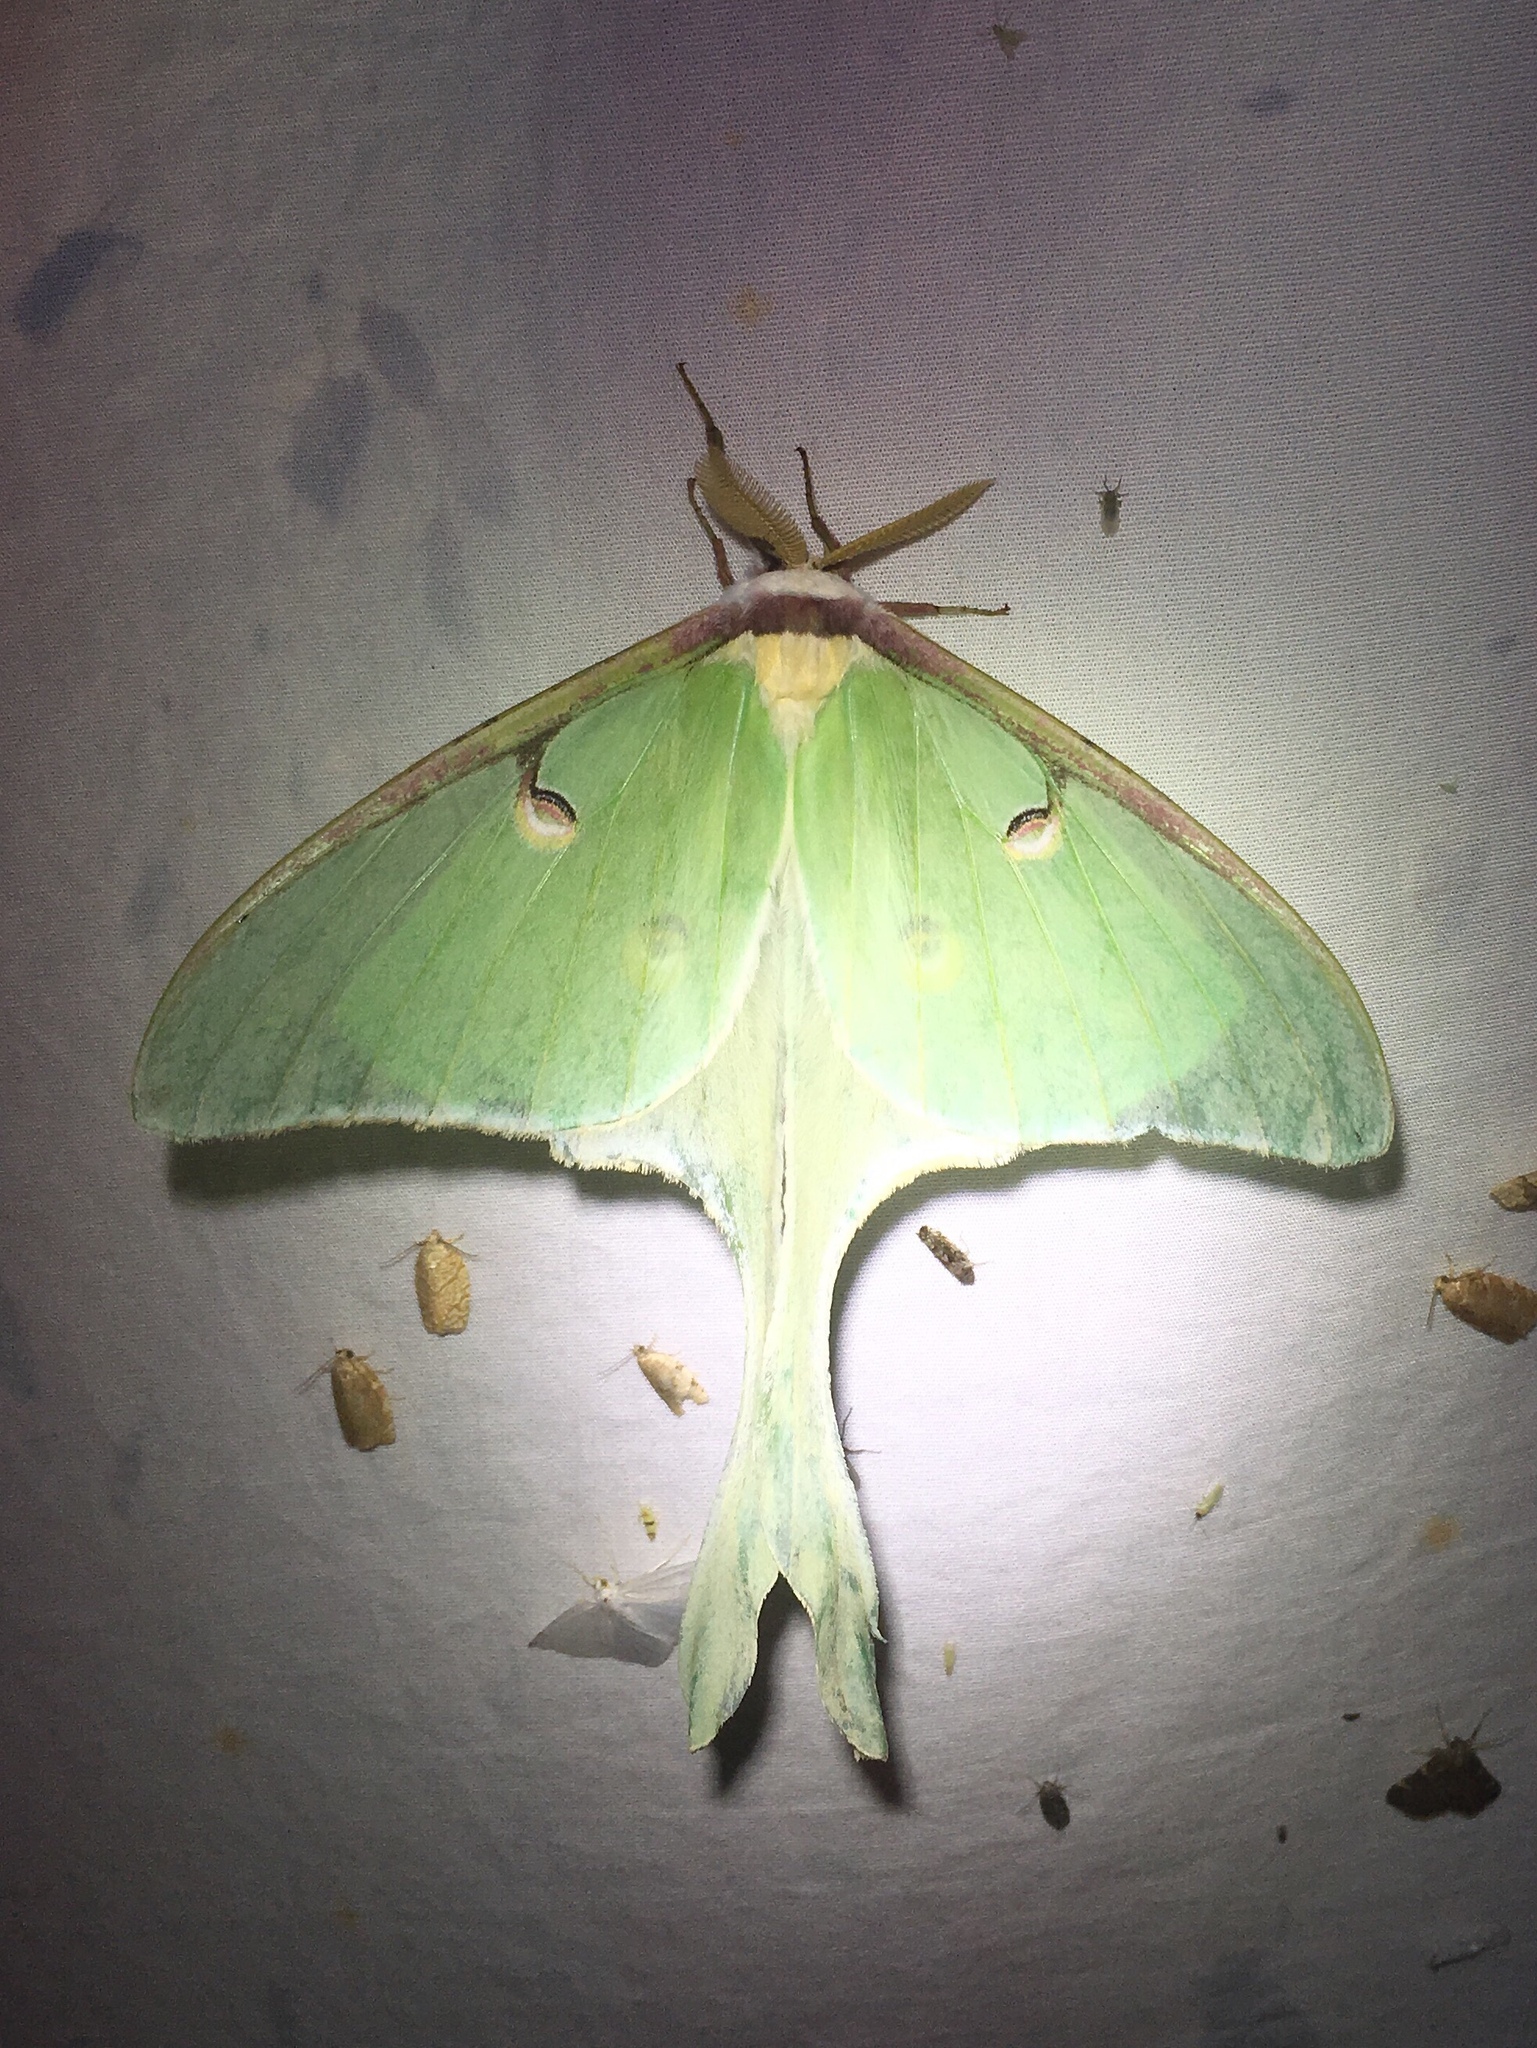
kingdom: Animalia
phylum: Arthropoda
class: Insecta
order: Lepidoptera
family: Saturniidae
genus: Actias
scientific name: Actias luna
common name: Luna moth
